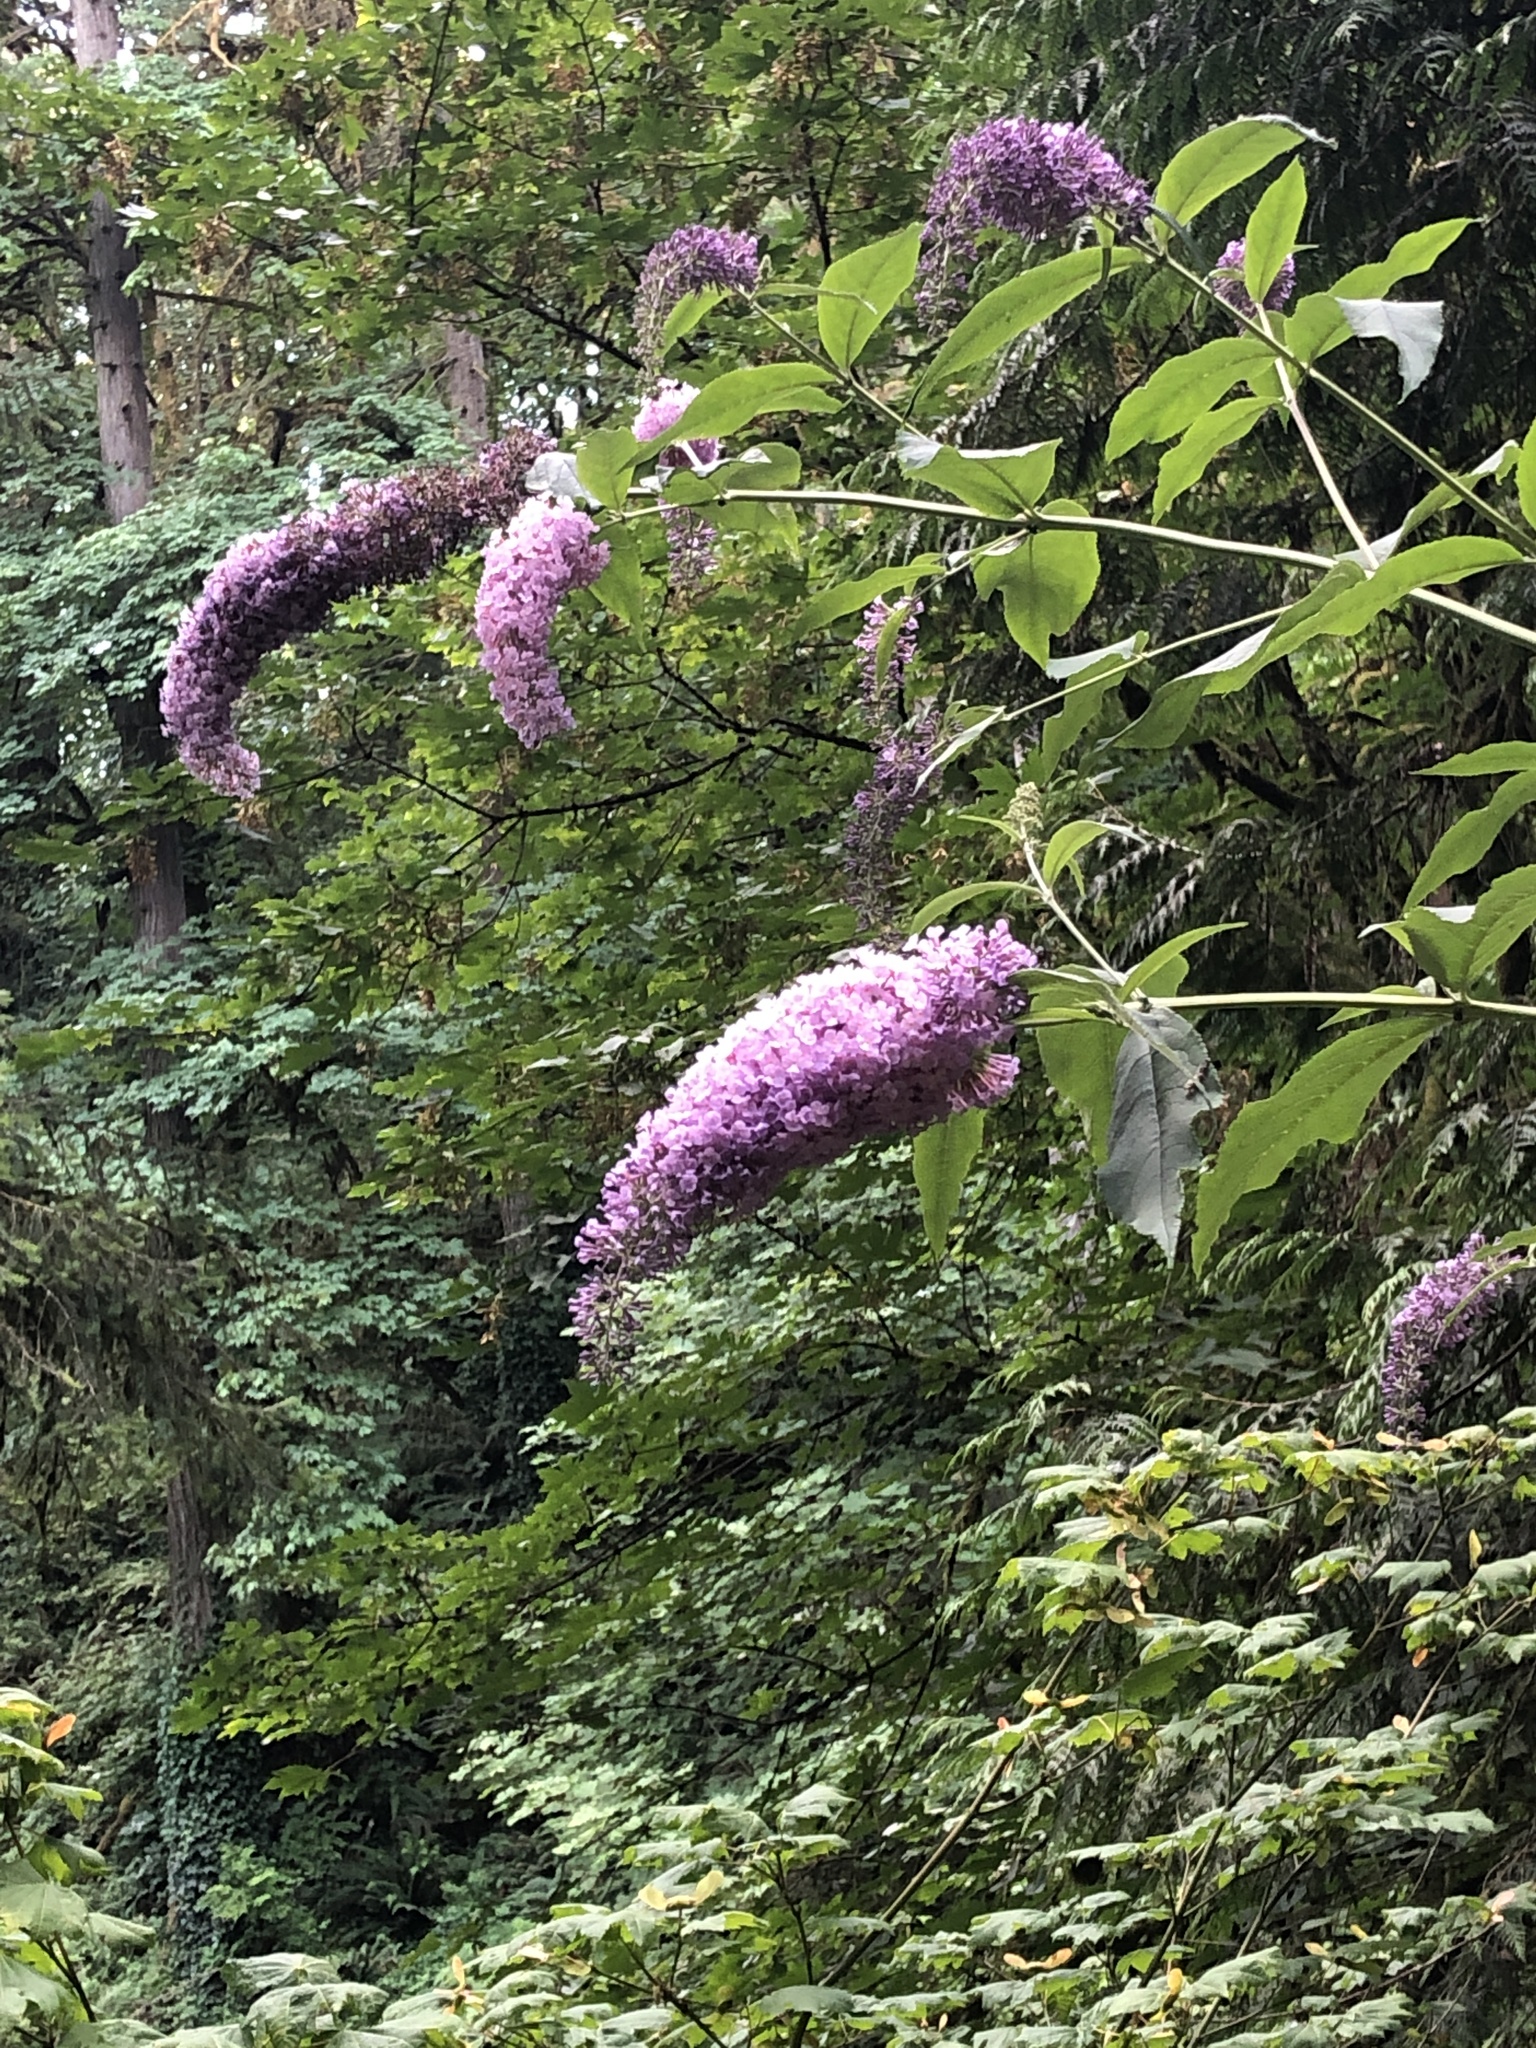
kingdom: Plantae
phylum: Tracheophyta
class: Magnoliopsida
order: Lamiales
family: Scrophulariaceae
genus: Buddleja
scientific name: Buddleja davidii
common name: Butterfly-bush
